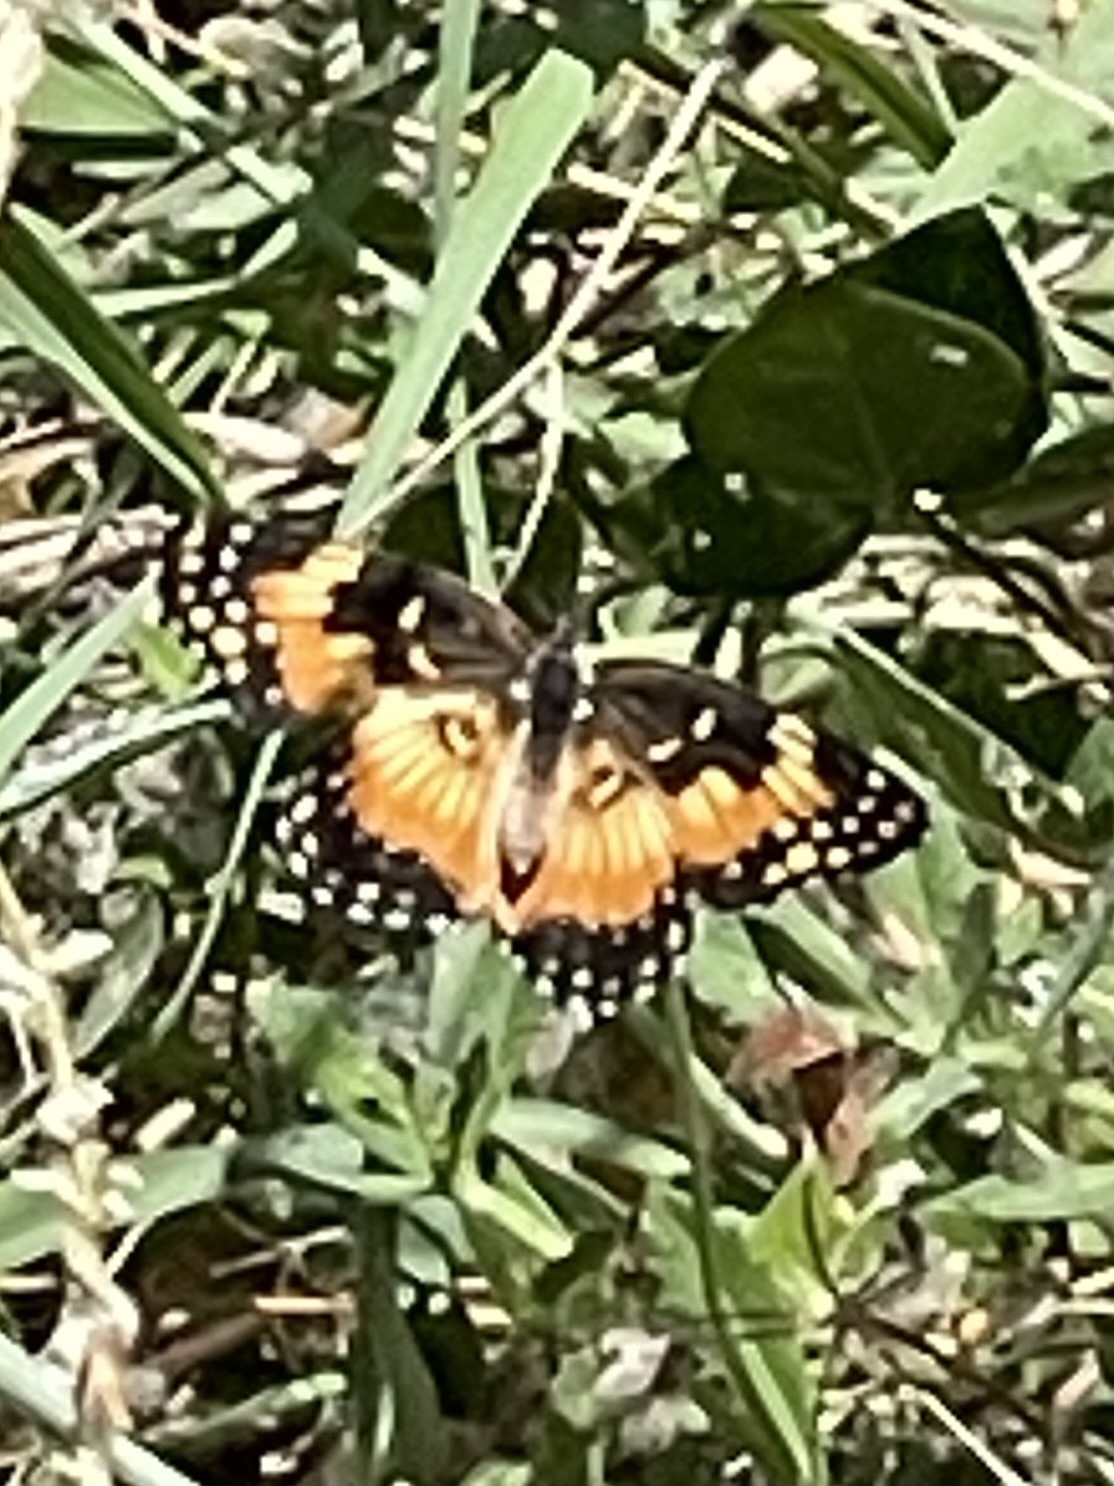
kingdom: Animalia
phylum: Arthropoda
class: Insecta
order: Lepidoptera
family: Nymphalidae
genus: Chlosyne
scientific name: Chlosyne lacinia
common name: Bordered patch
